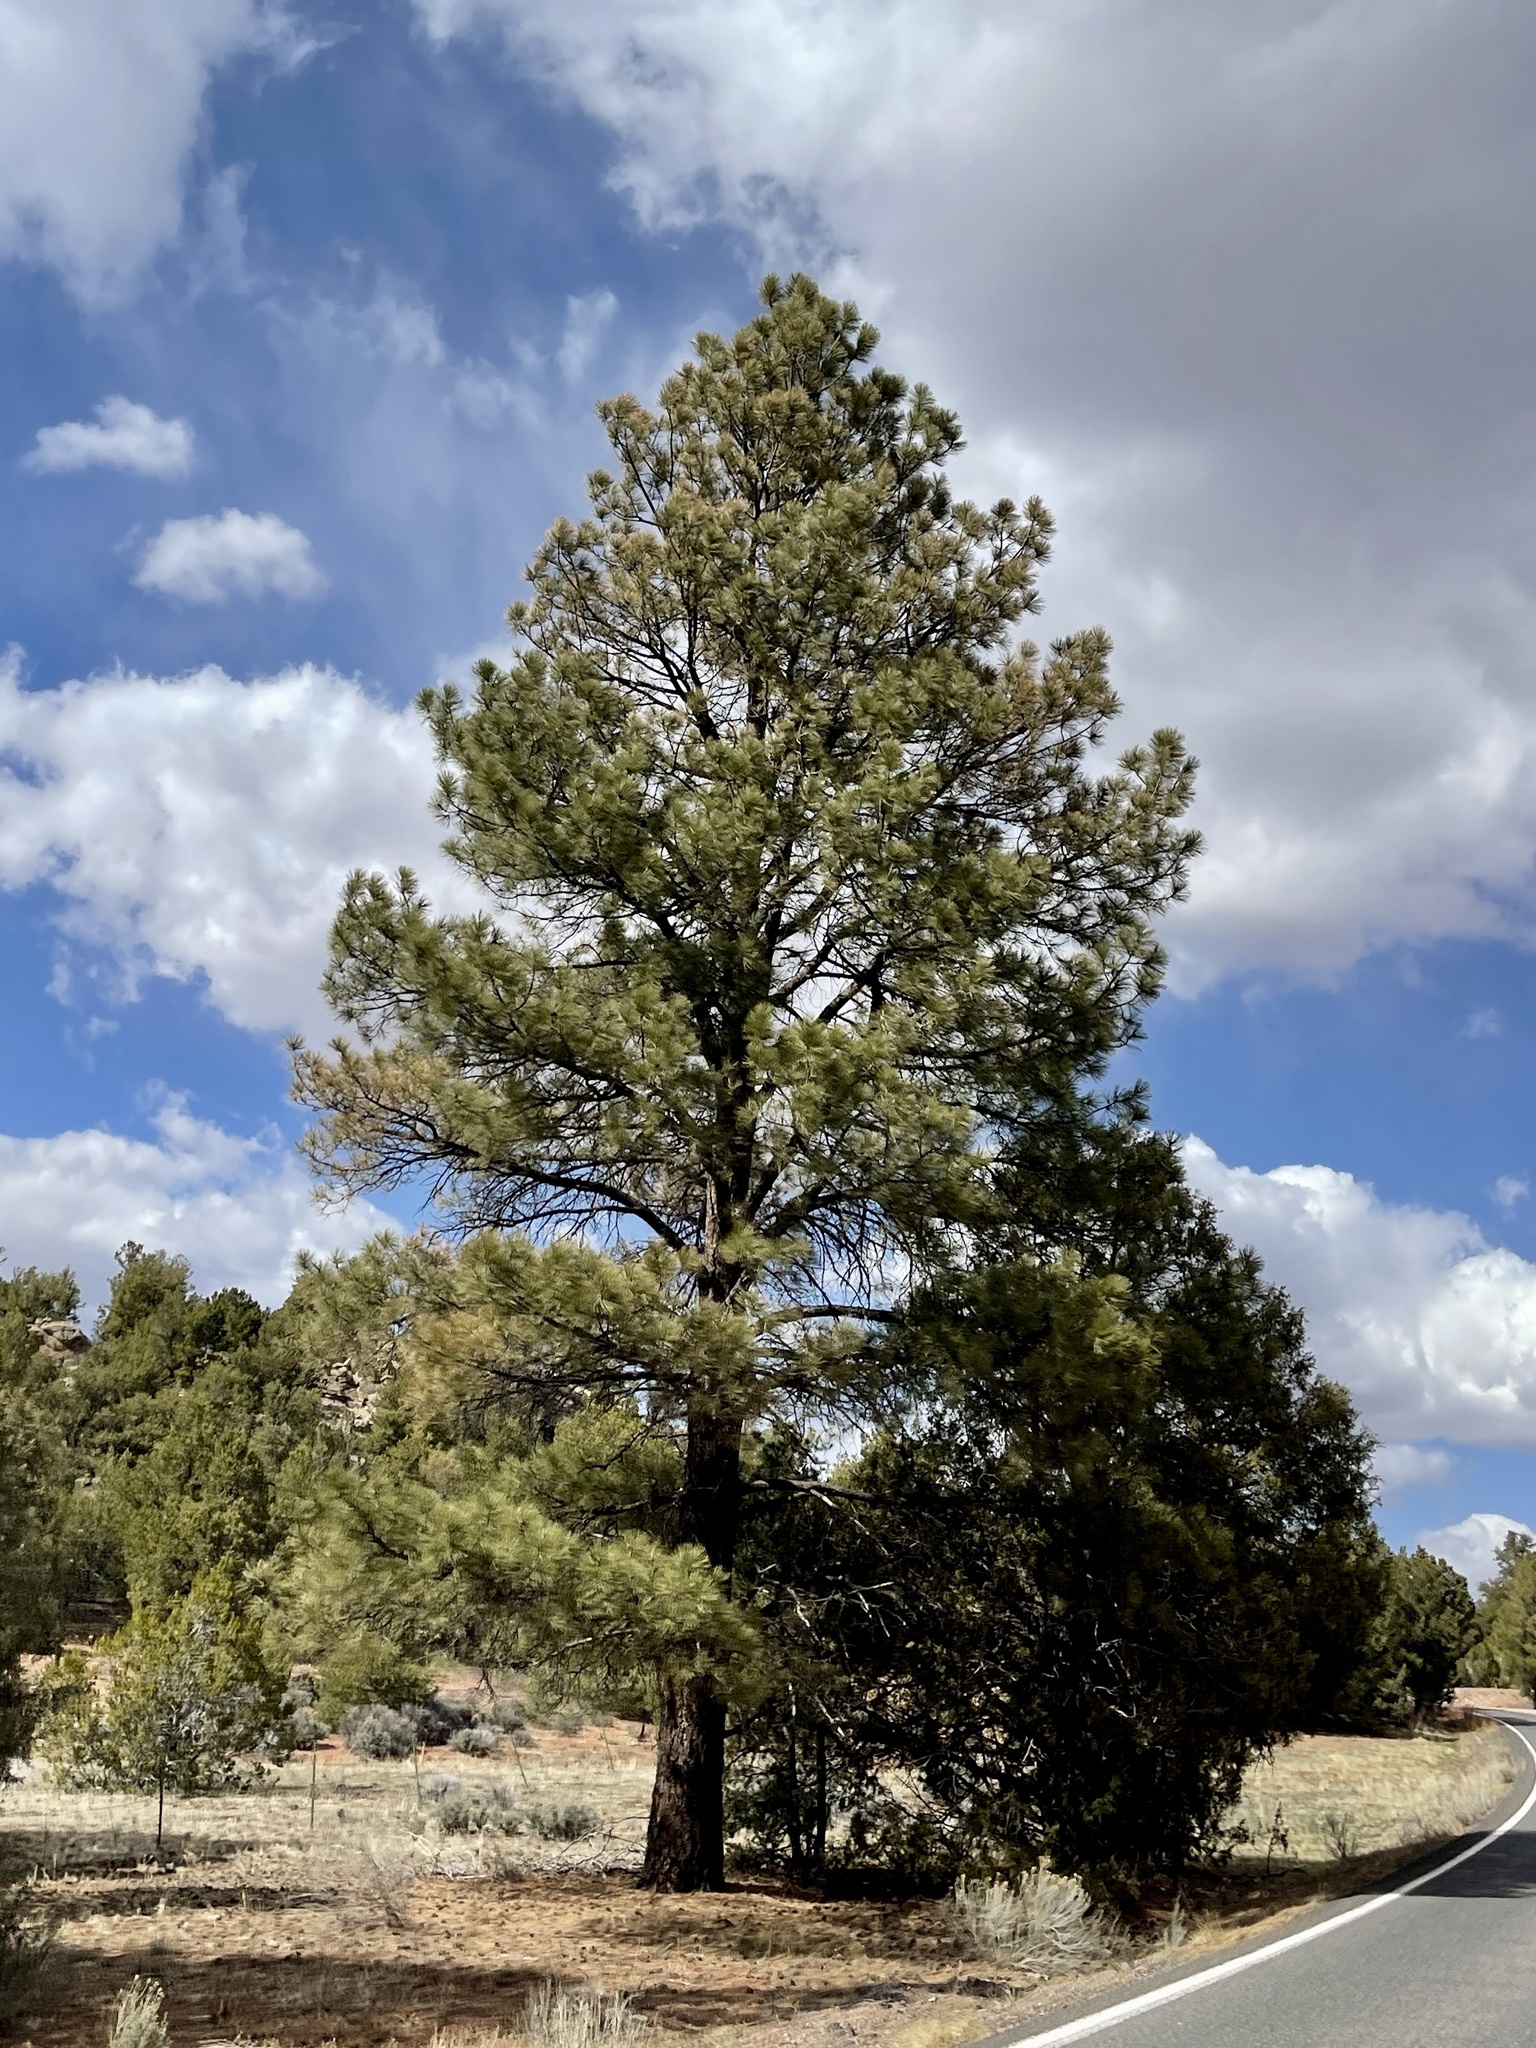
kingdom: Plantae
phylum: Tracheophyta
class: Pinopsida
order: Pinales
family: Pinaceae
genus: Pinus
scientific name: Pinus ponderosa
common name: Western yellow-pine
